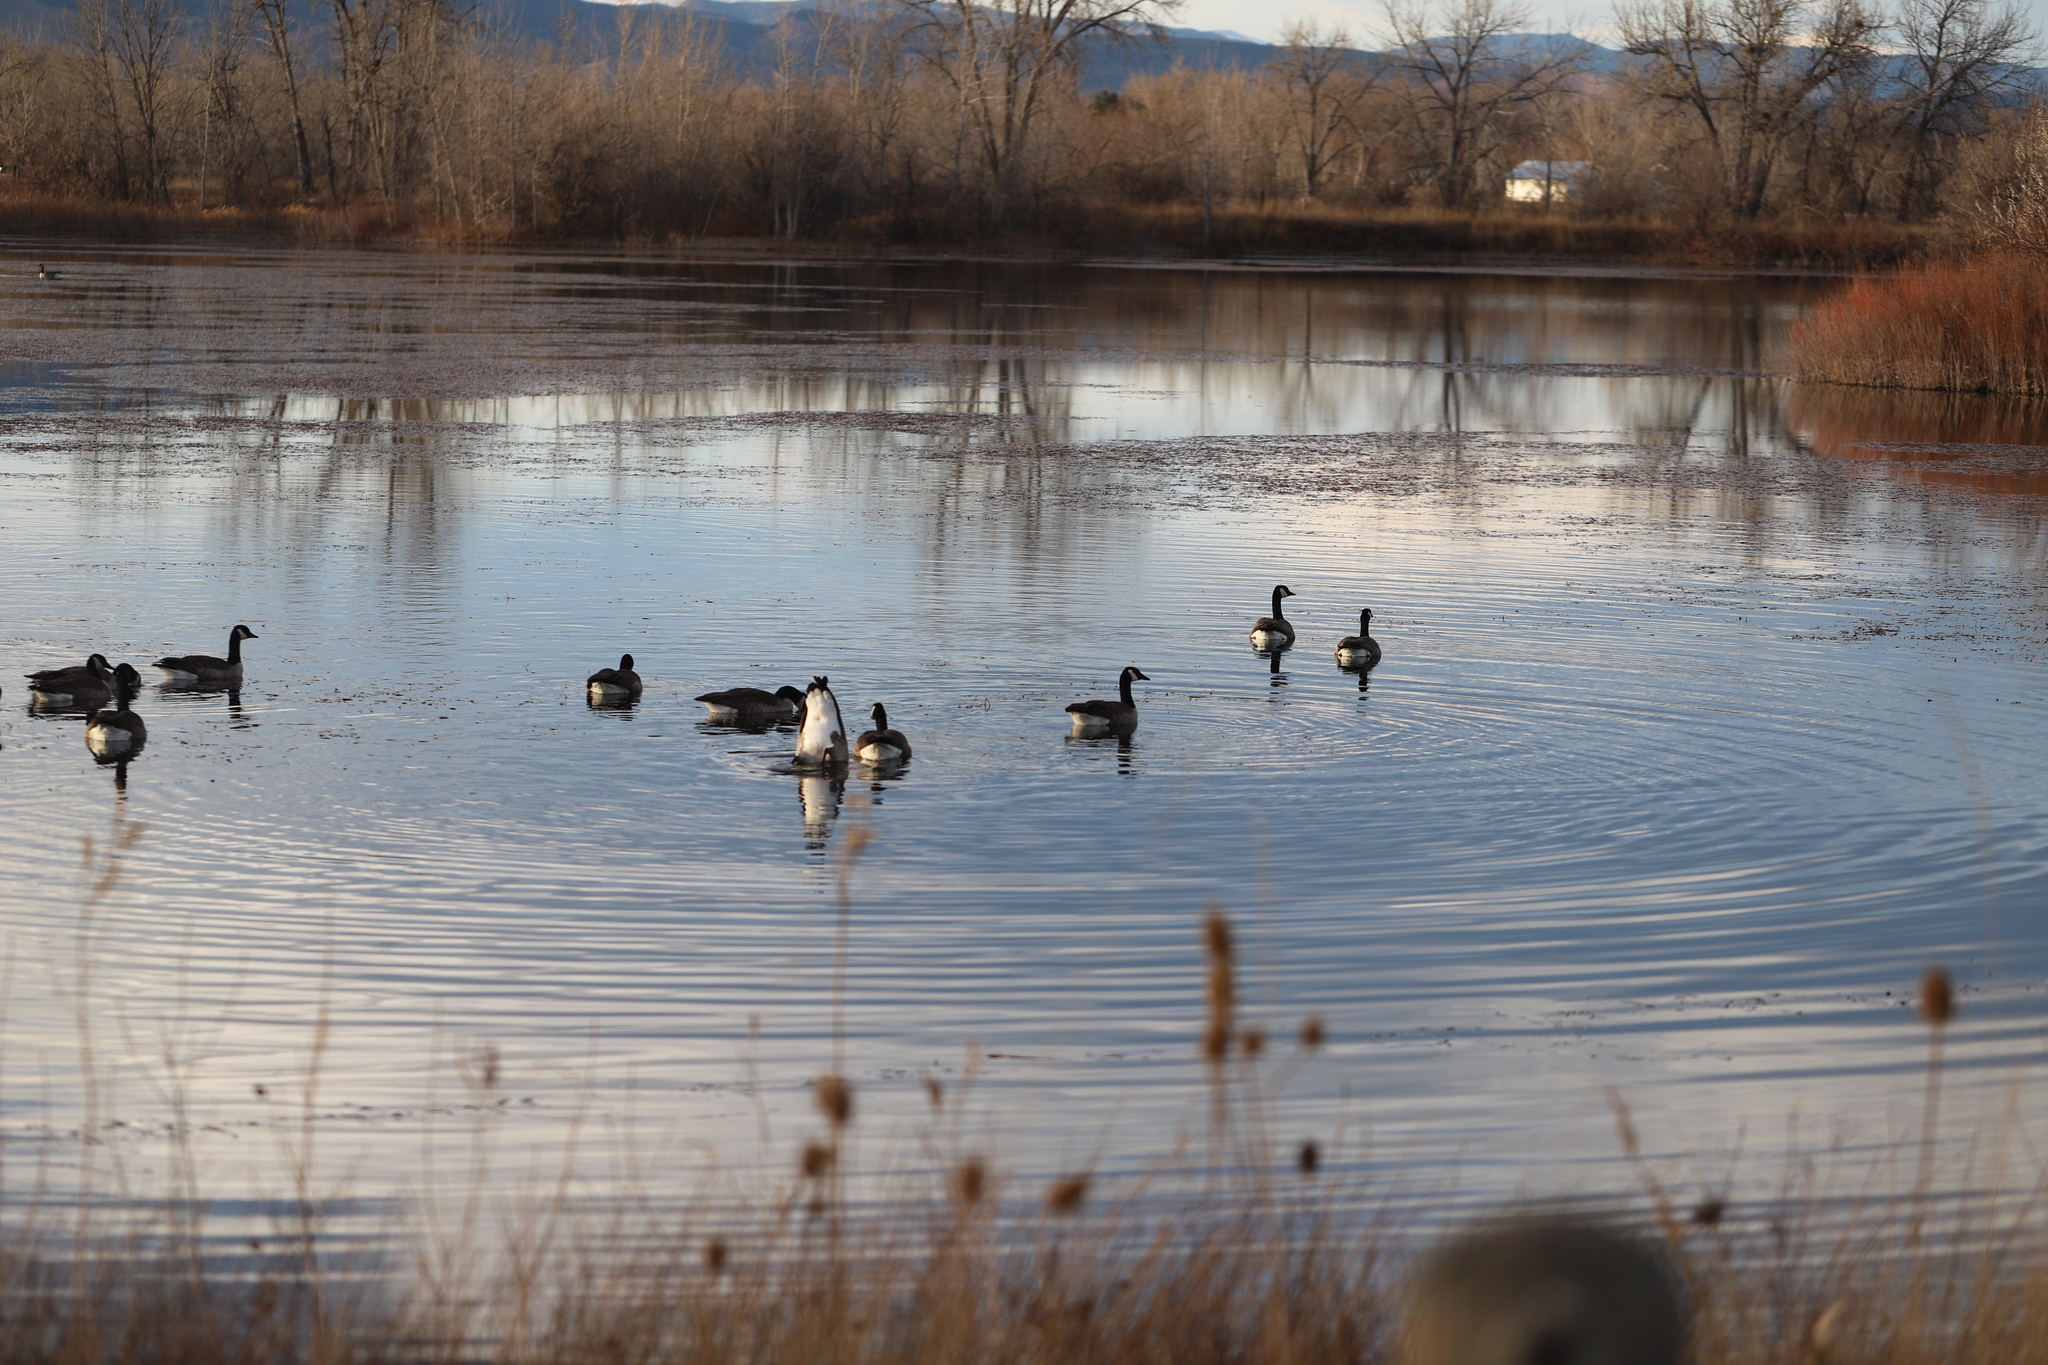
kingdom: Animalia
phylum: Chordata
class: Aves
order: Anseriformes
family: Anatidae
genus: Branta
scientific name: Branta canadensis
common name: Canada goose
